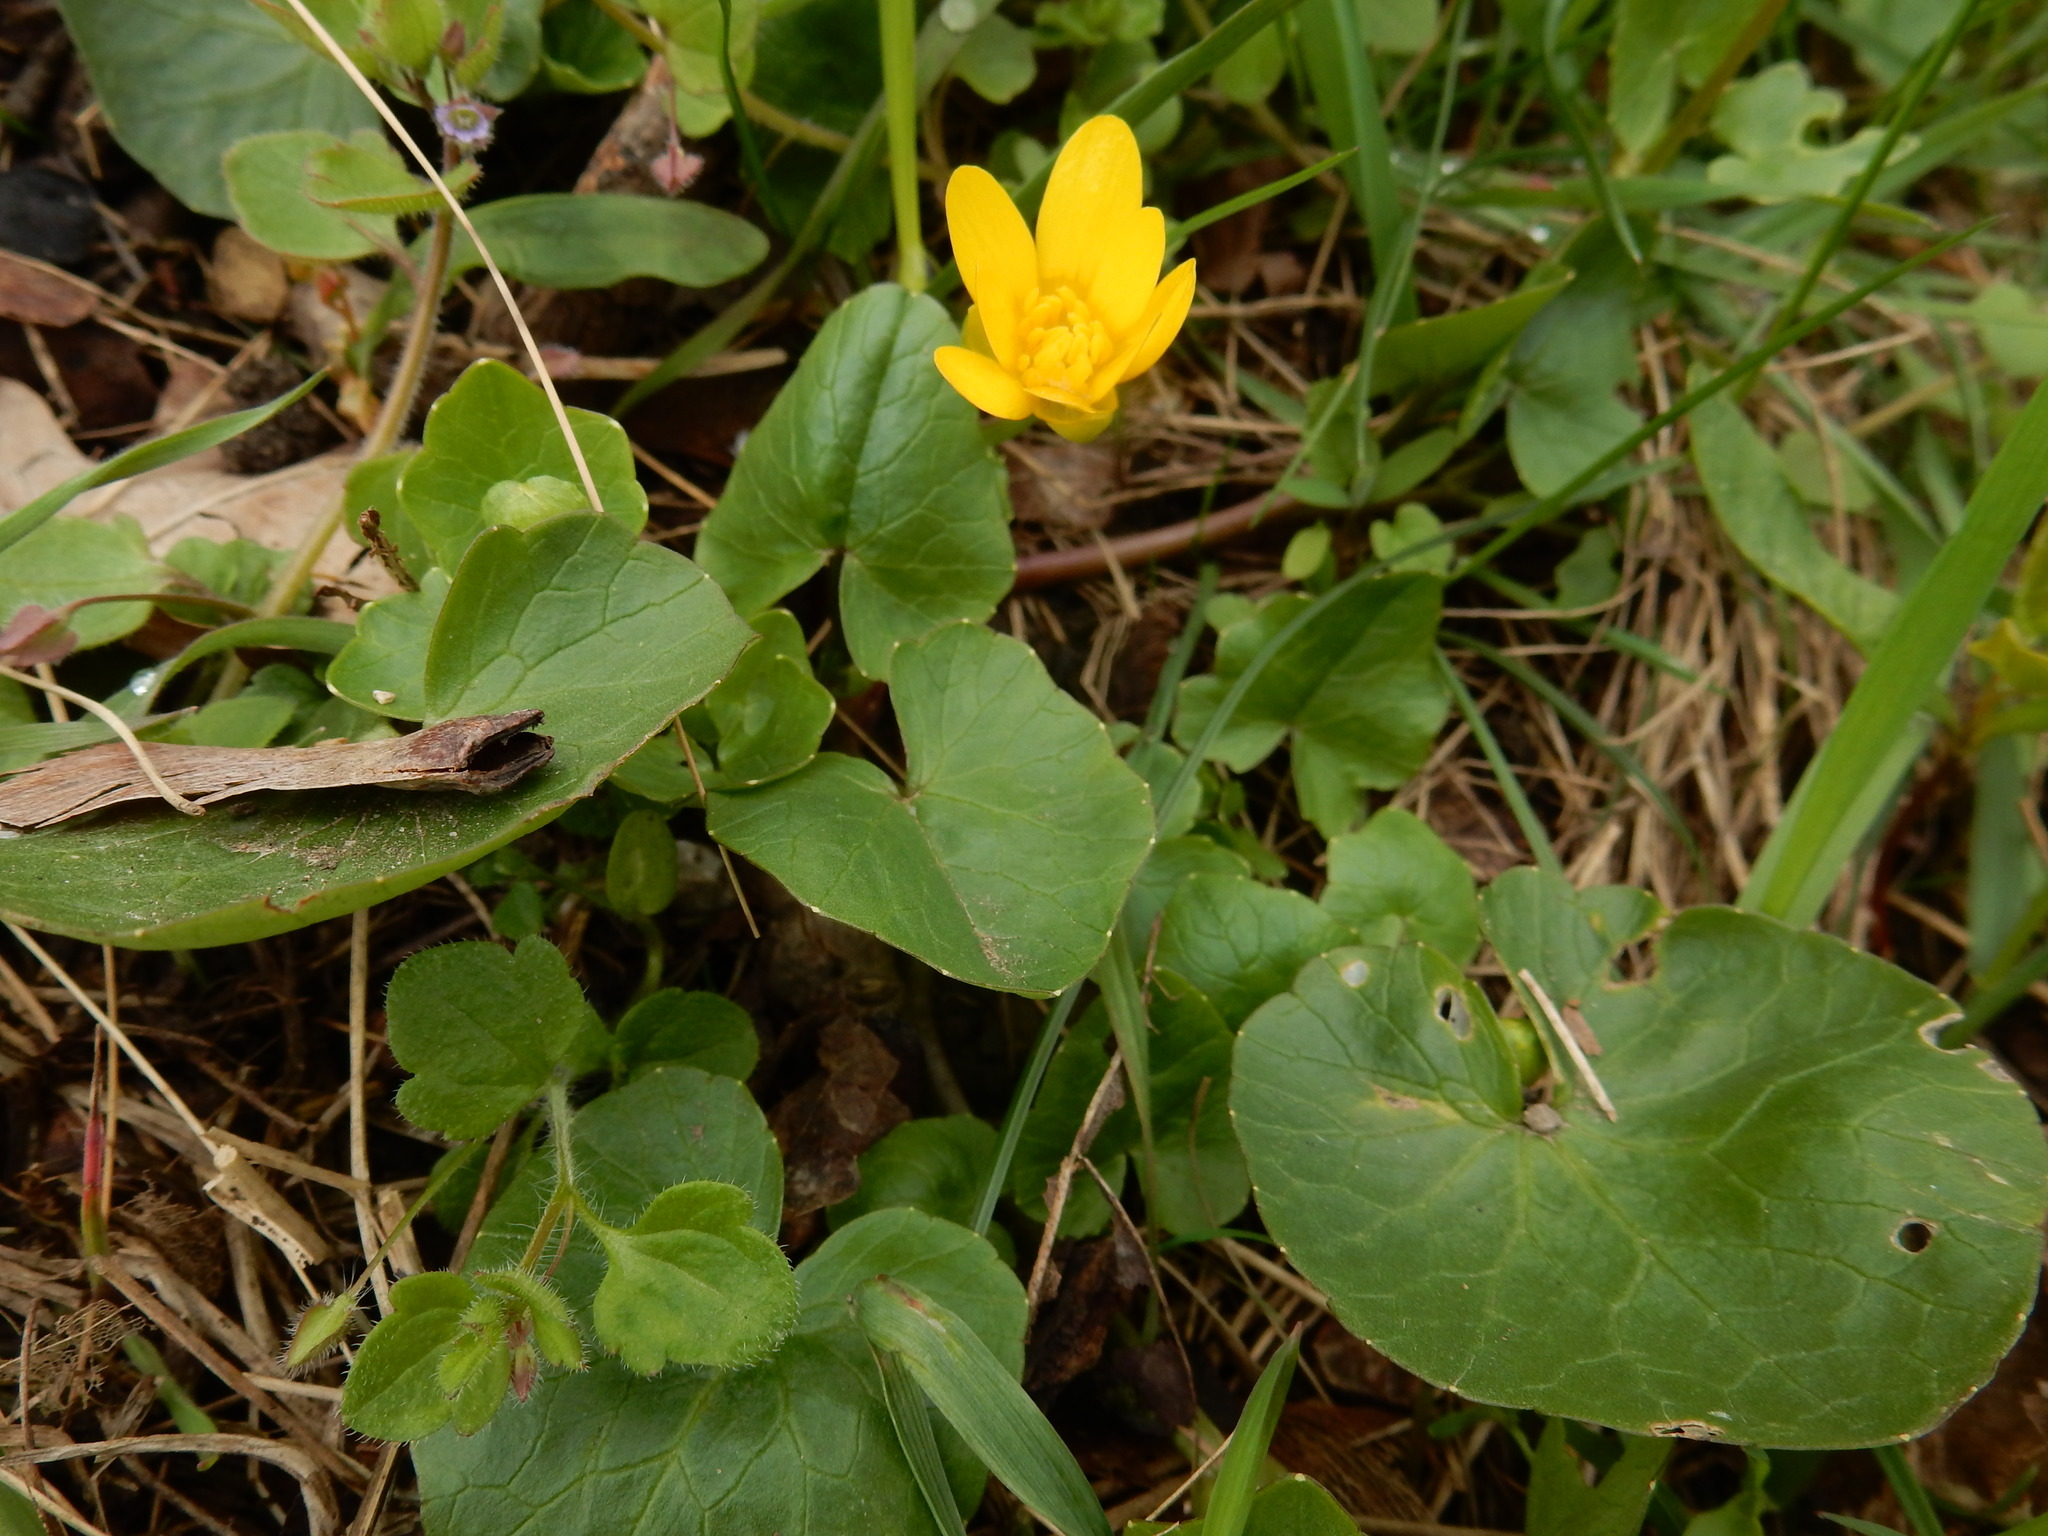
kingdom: Plantae
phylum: Tracheophyta
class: Magnoliopsida
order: Ranunculales
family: Ranunculaceae
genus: Ficaria
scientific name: Ficaria verna
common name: Lesser celandine
